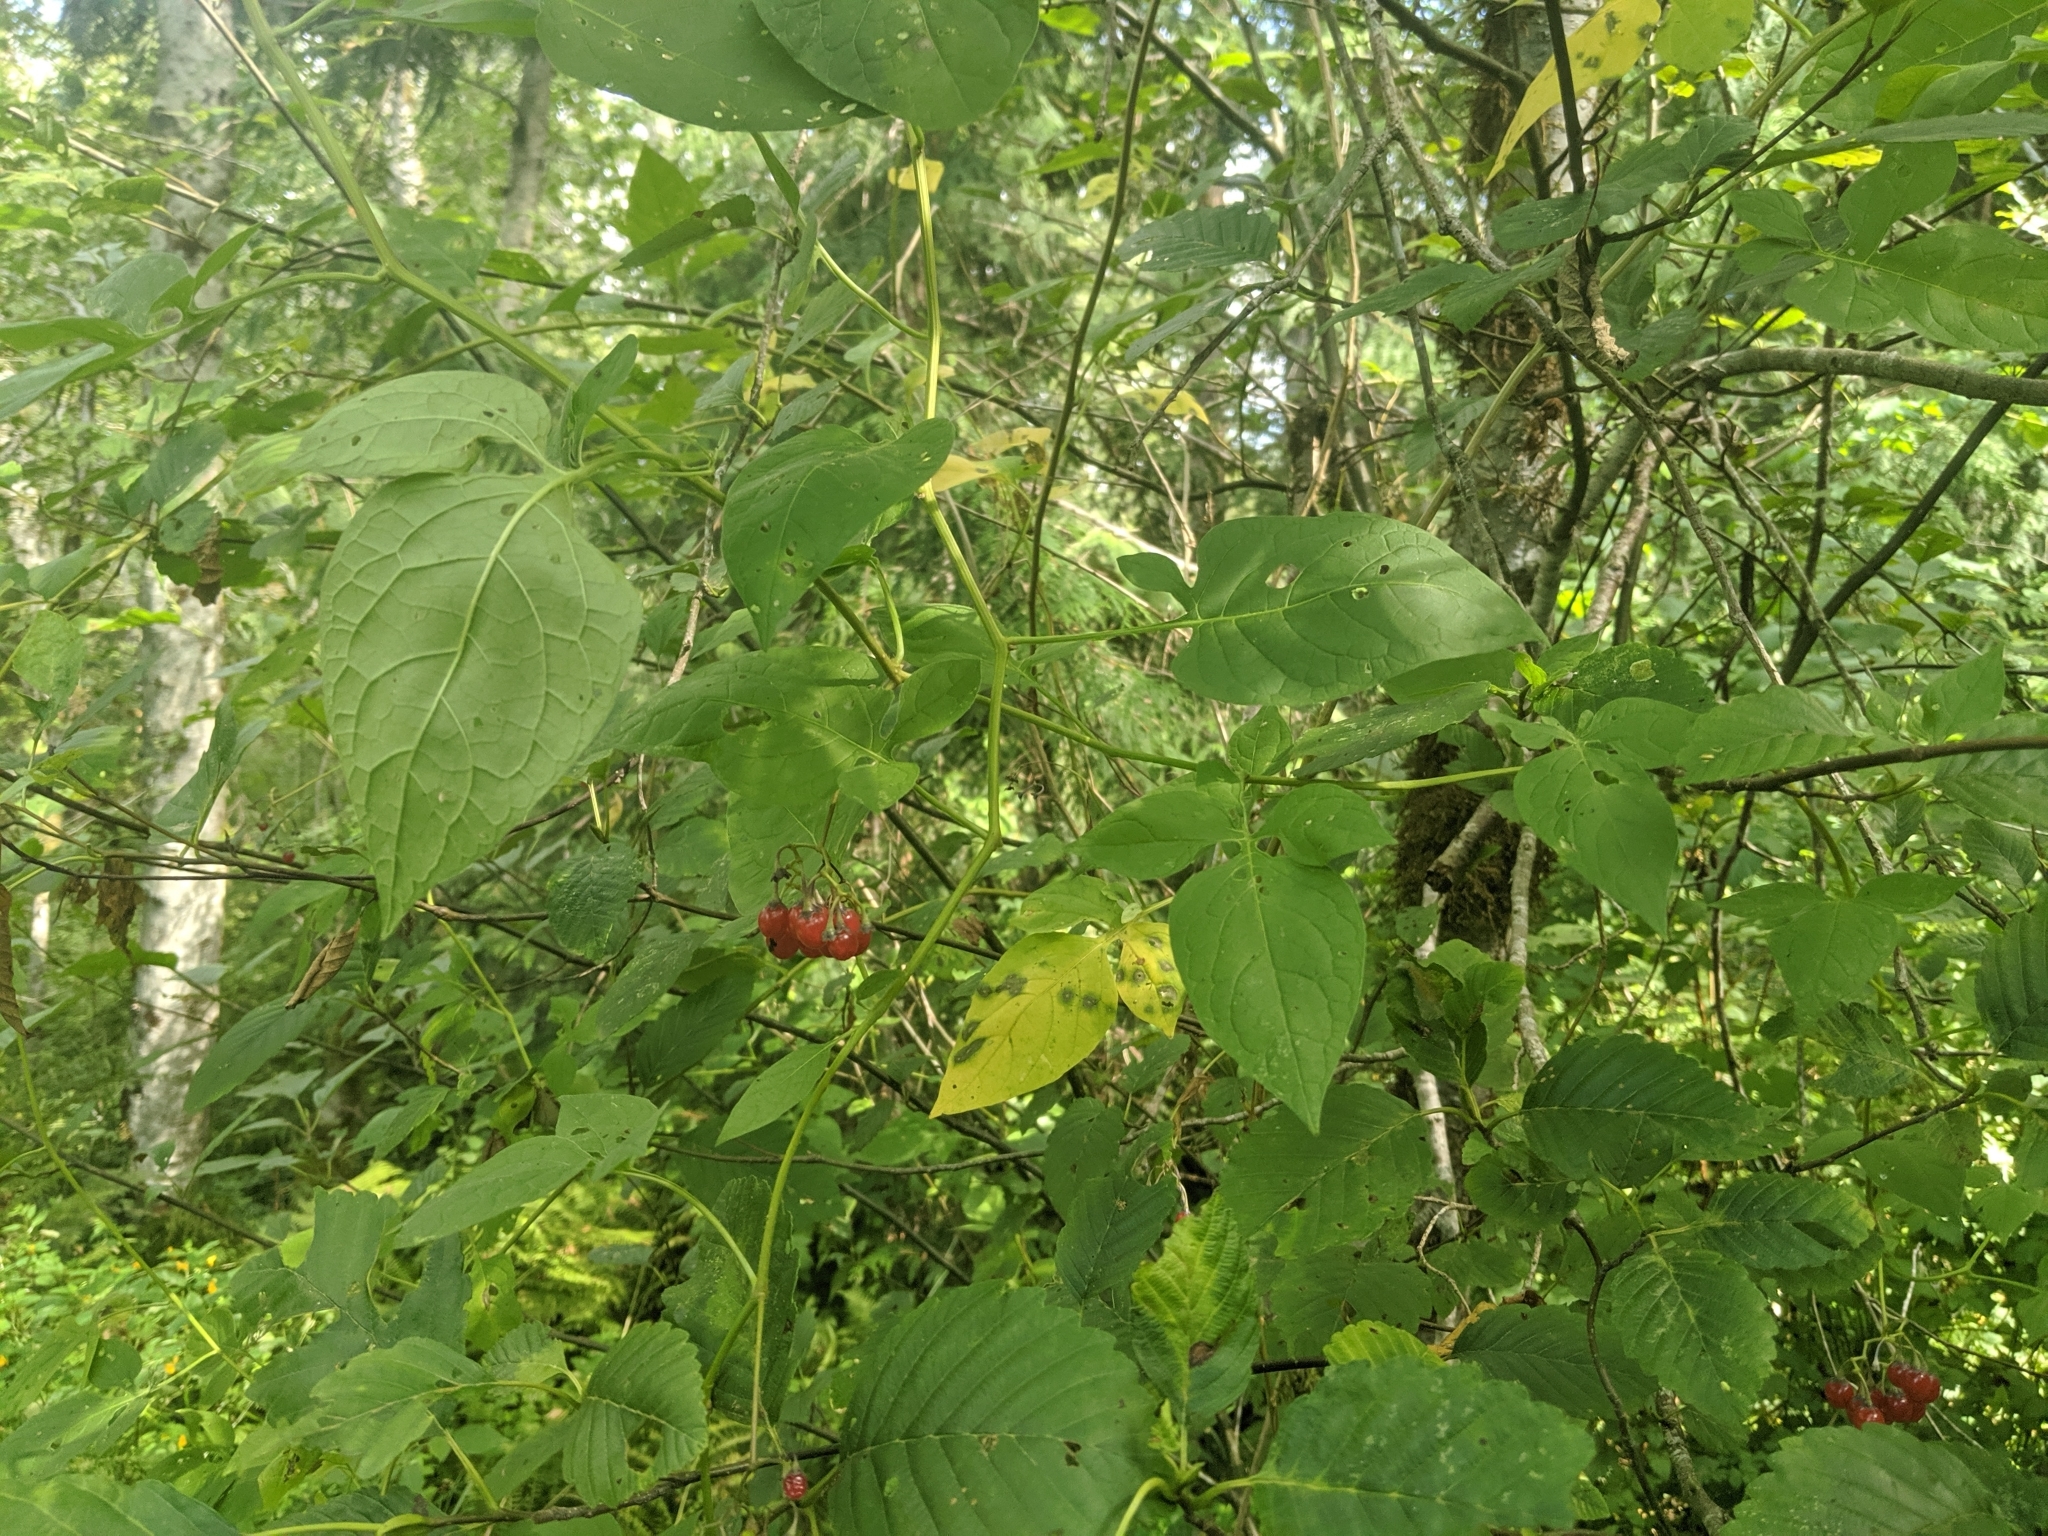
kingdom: Plantae
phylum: Tracheophyta
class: Magnoliopsida
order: Solanales
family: Solanaceae
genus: Solanum
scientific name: Solanum dulcamara
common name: Climbing nightshade
